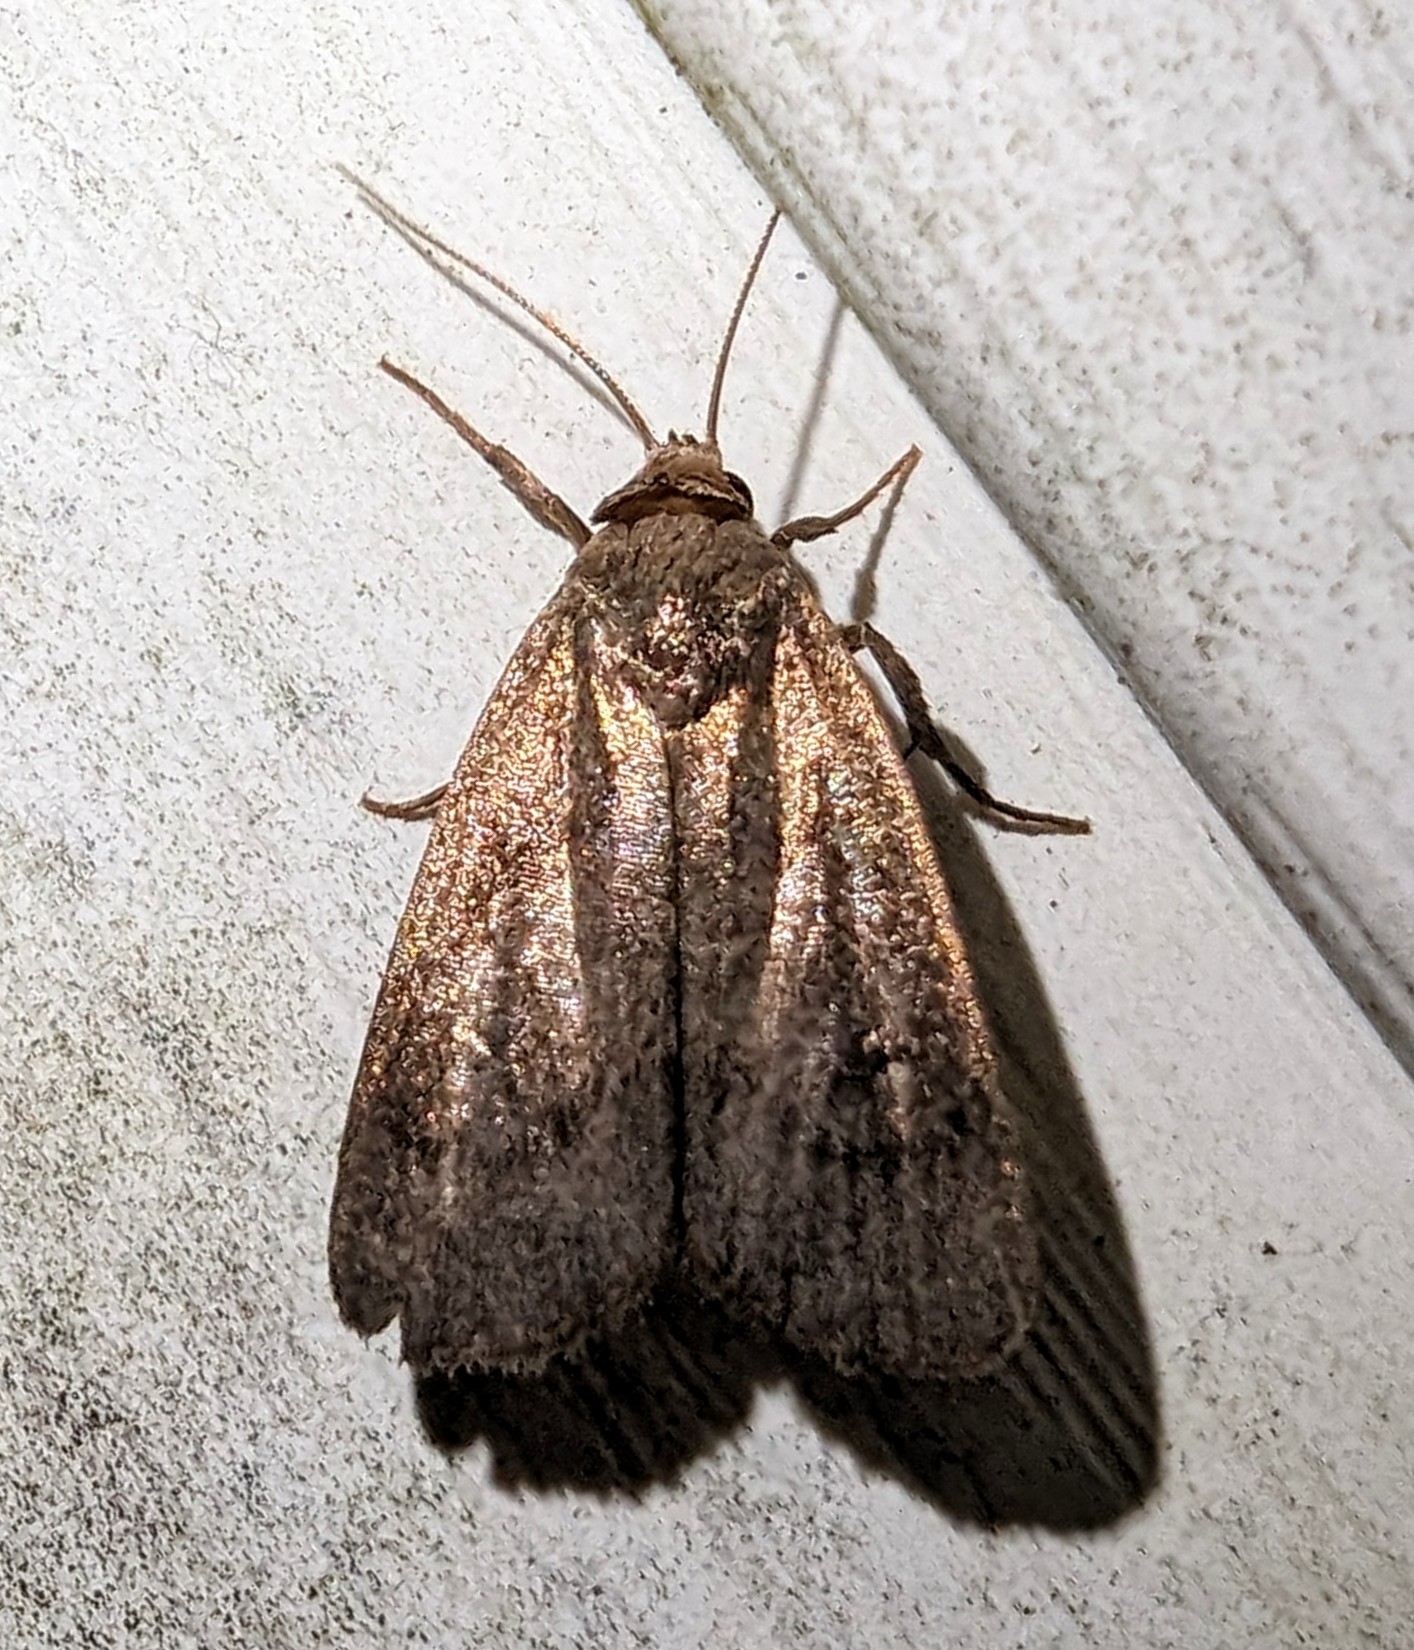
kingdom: Animalia
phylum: Arthropoda
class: Insecta
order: Lepidoptera
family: Noctuidae
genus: Proxenus
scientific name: Proxenus miranda
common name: Miranda moth
